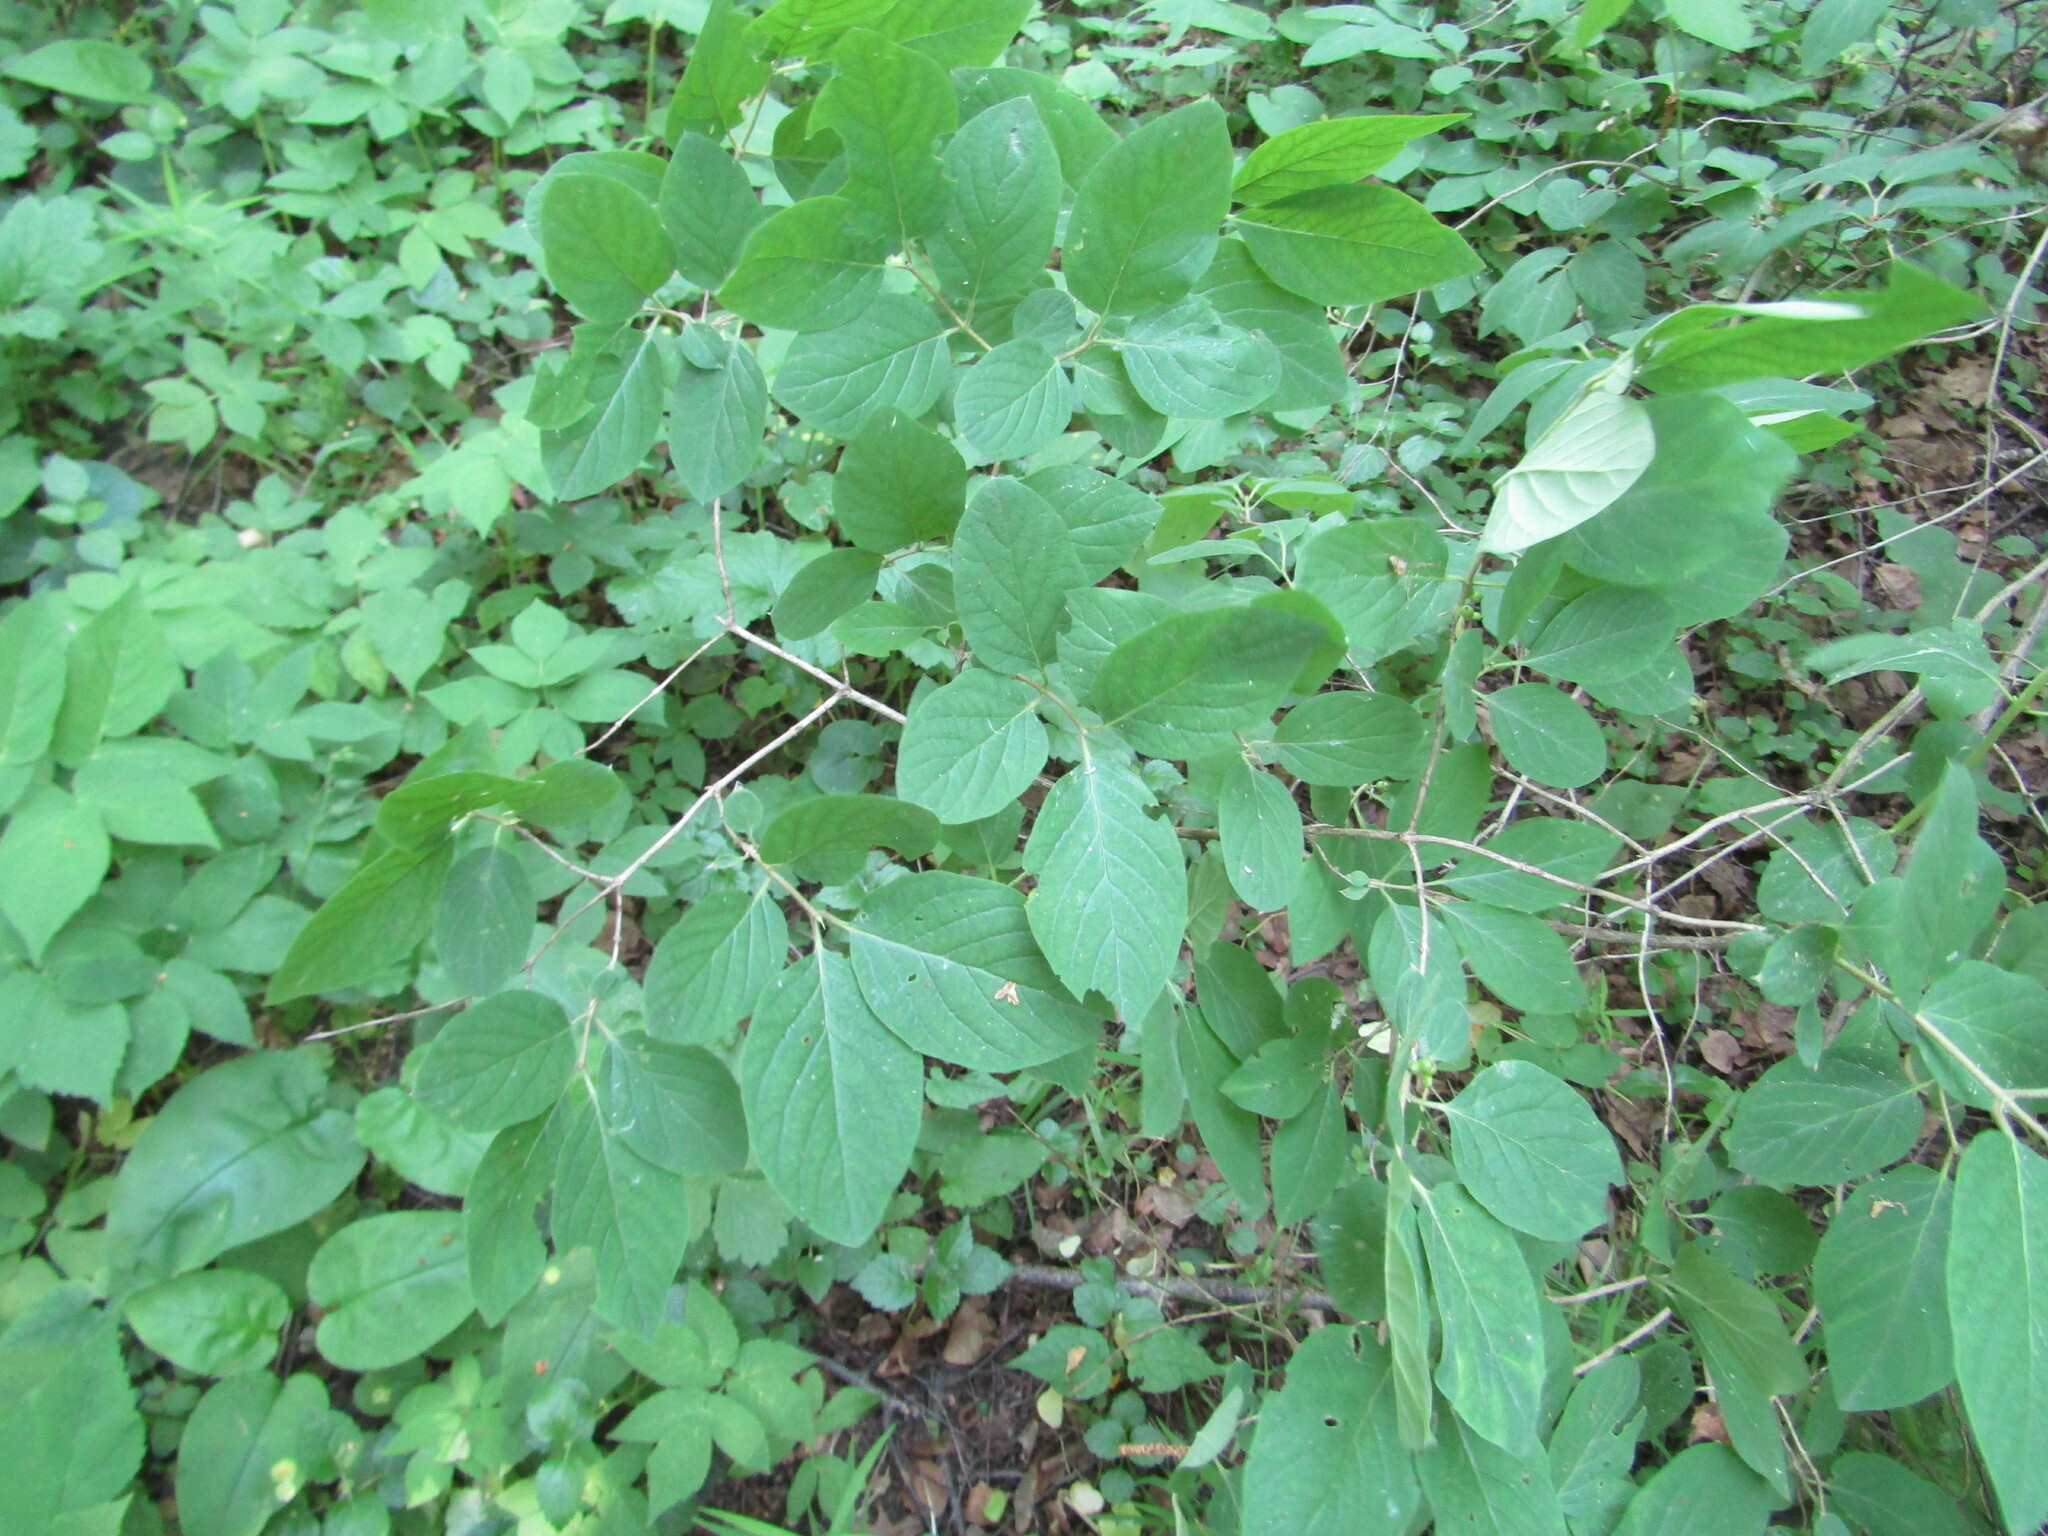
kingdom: Plantae
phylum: Tracheophyta
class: Magnoliopsida
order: Dipsacales
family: Caprifoliaceae
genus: Lonicera
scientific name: Lonicera xylosteum
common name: Fly honeysuckle
